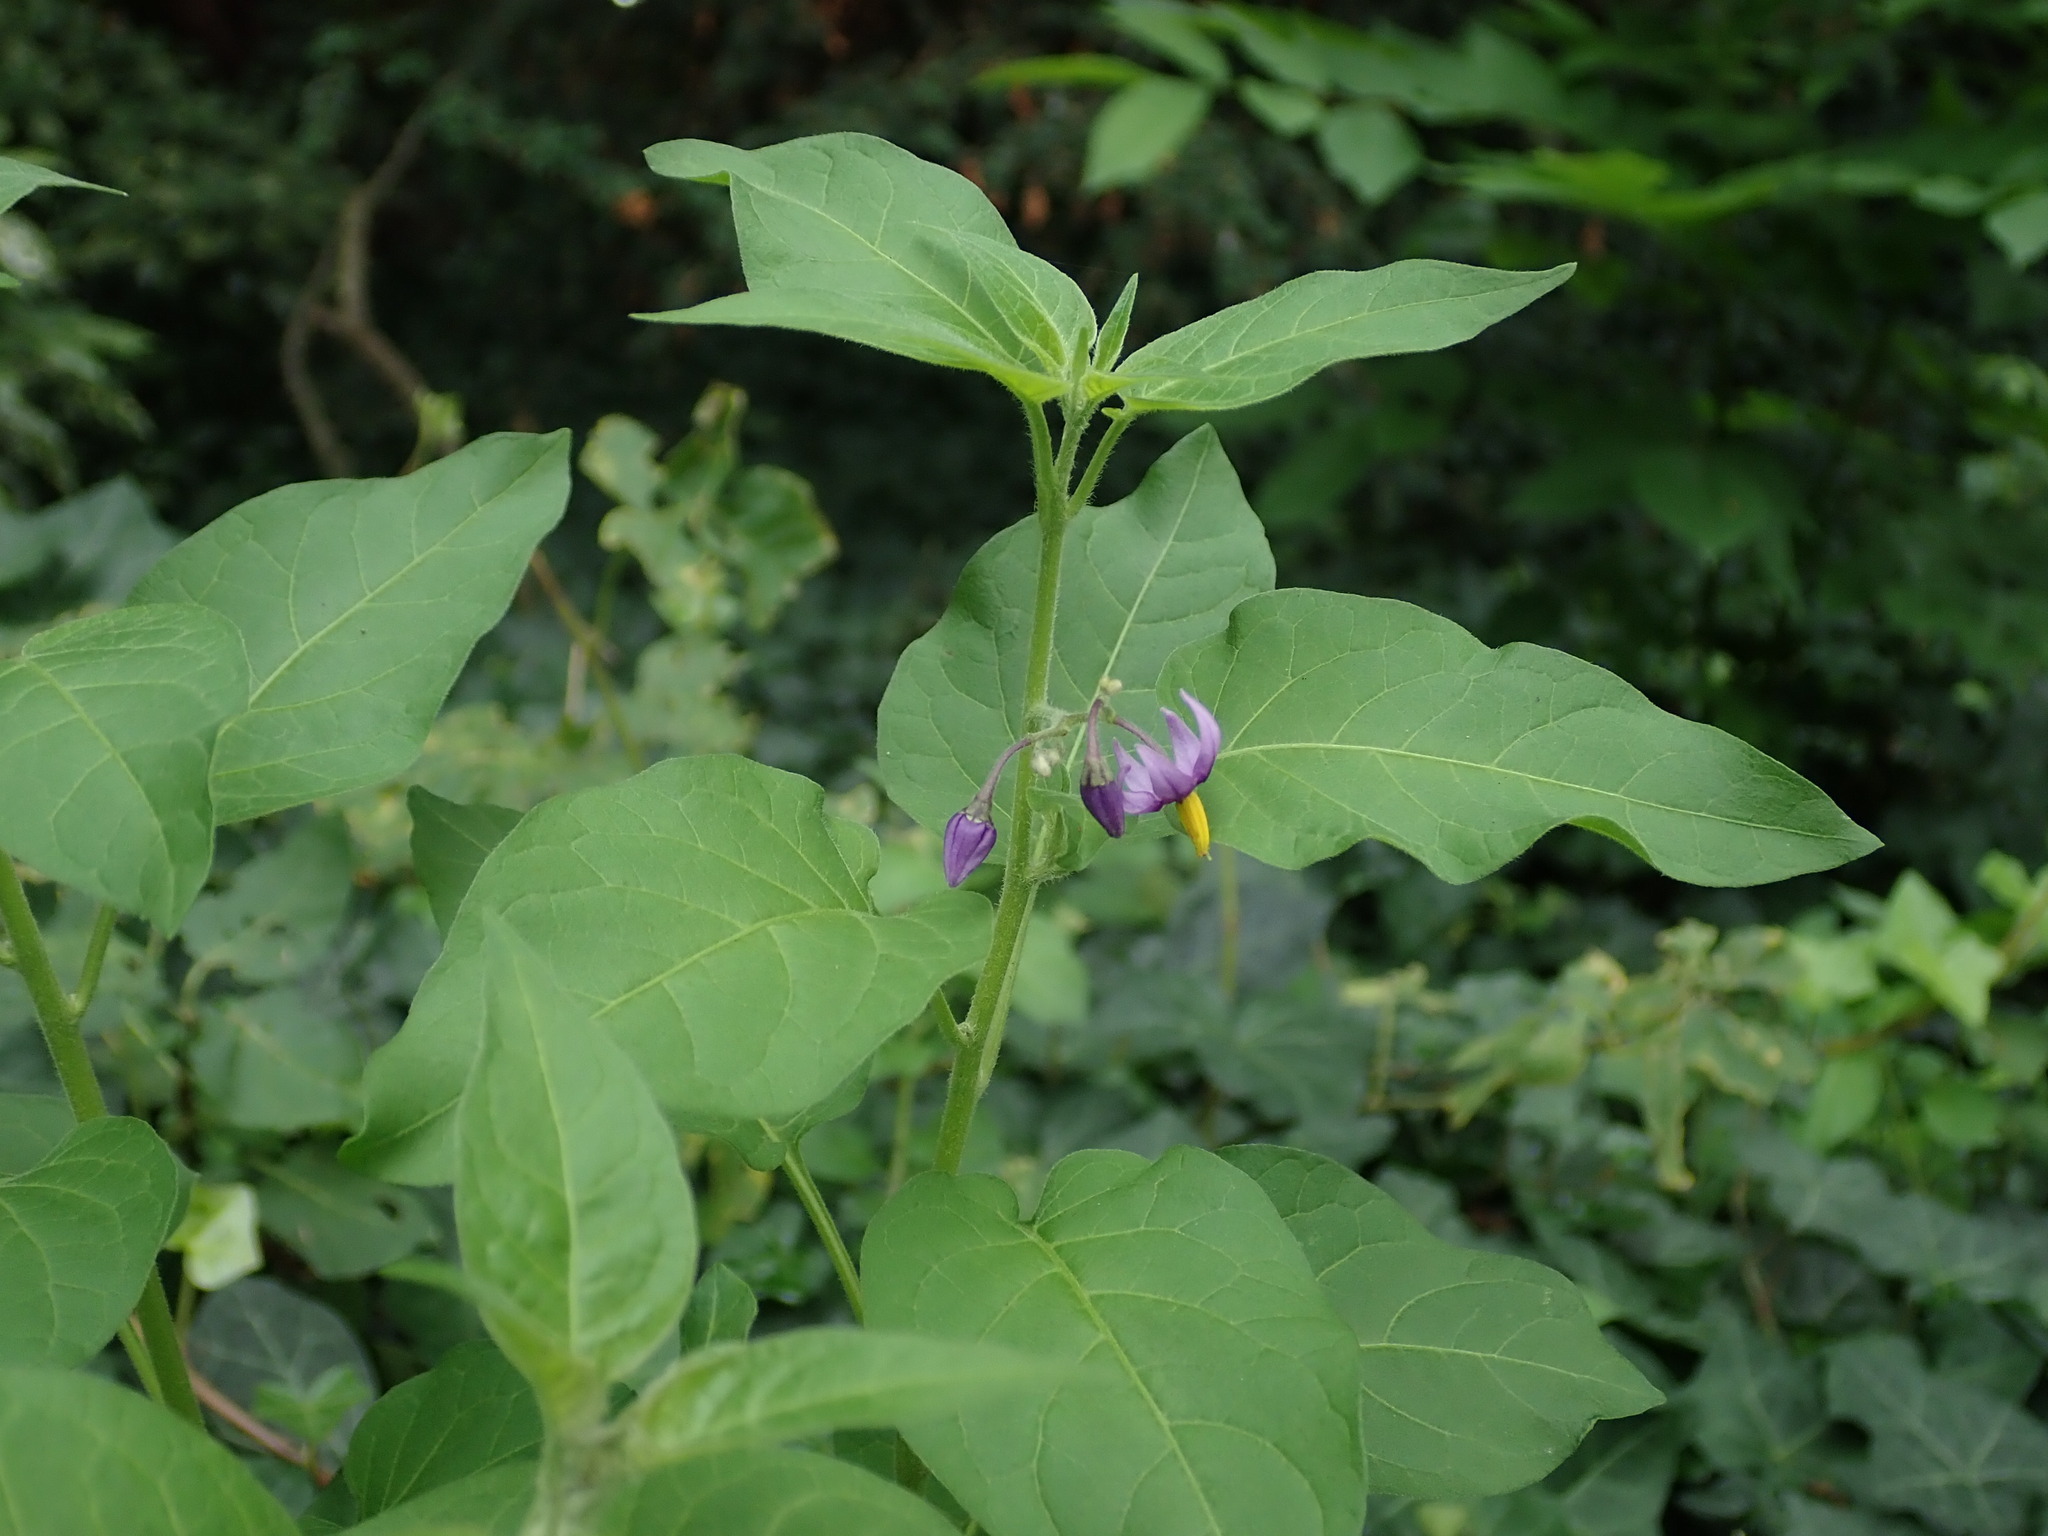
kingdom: Plantae
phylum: Tracheophyta
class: Magnoliopsida
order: Solanales
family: Solanaceae
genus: Solanum
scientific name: Solanum dulcamara
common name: Climbing nightshade
